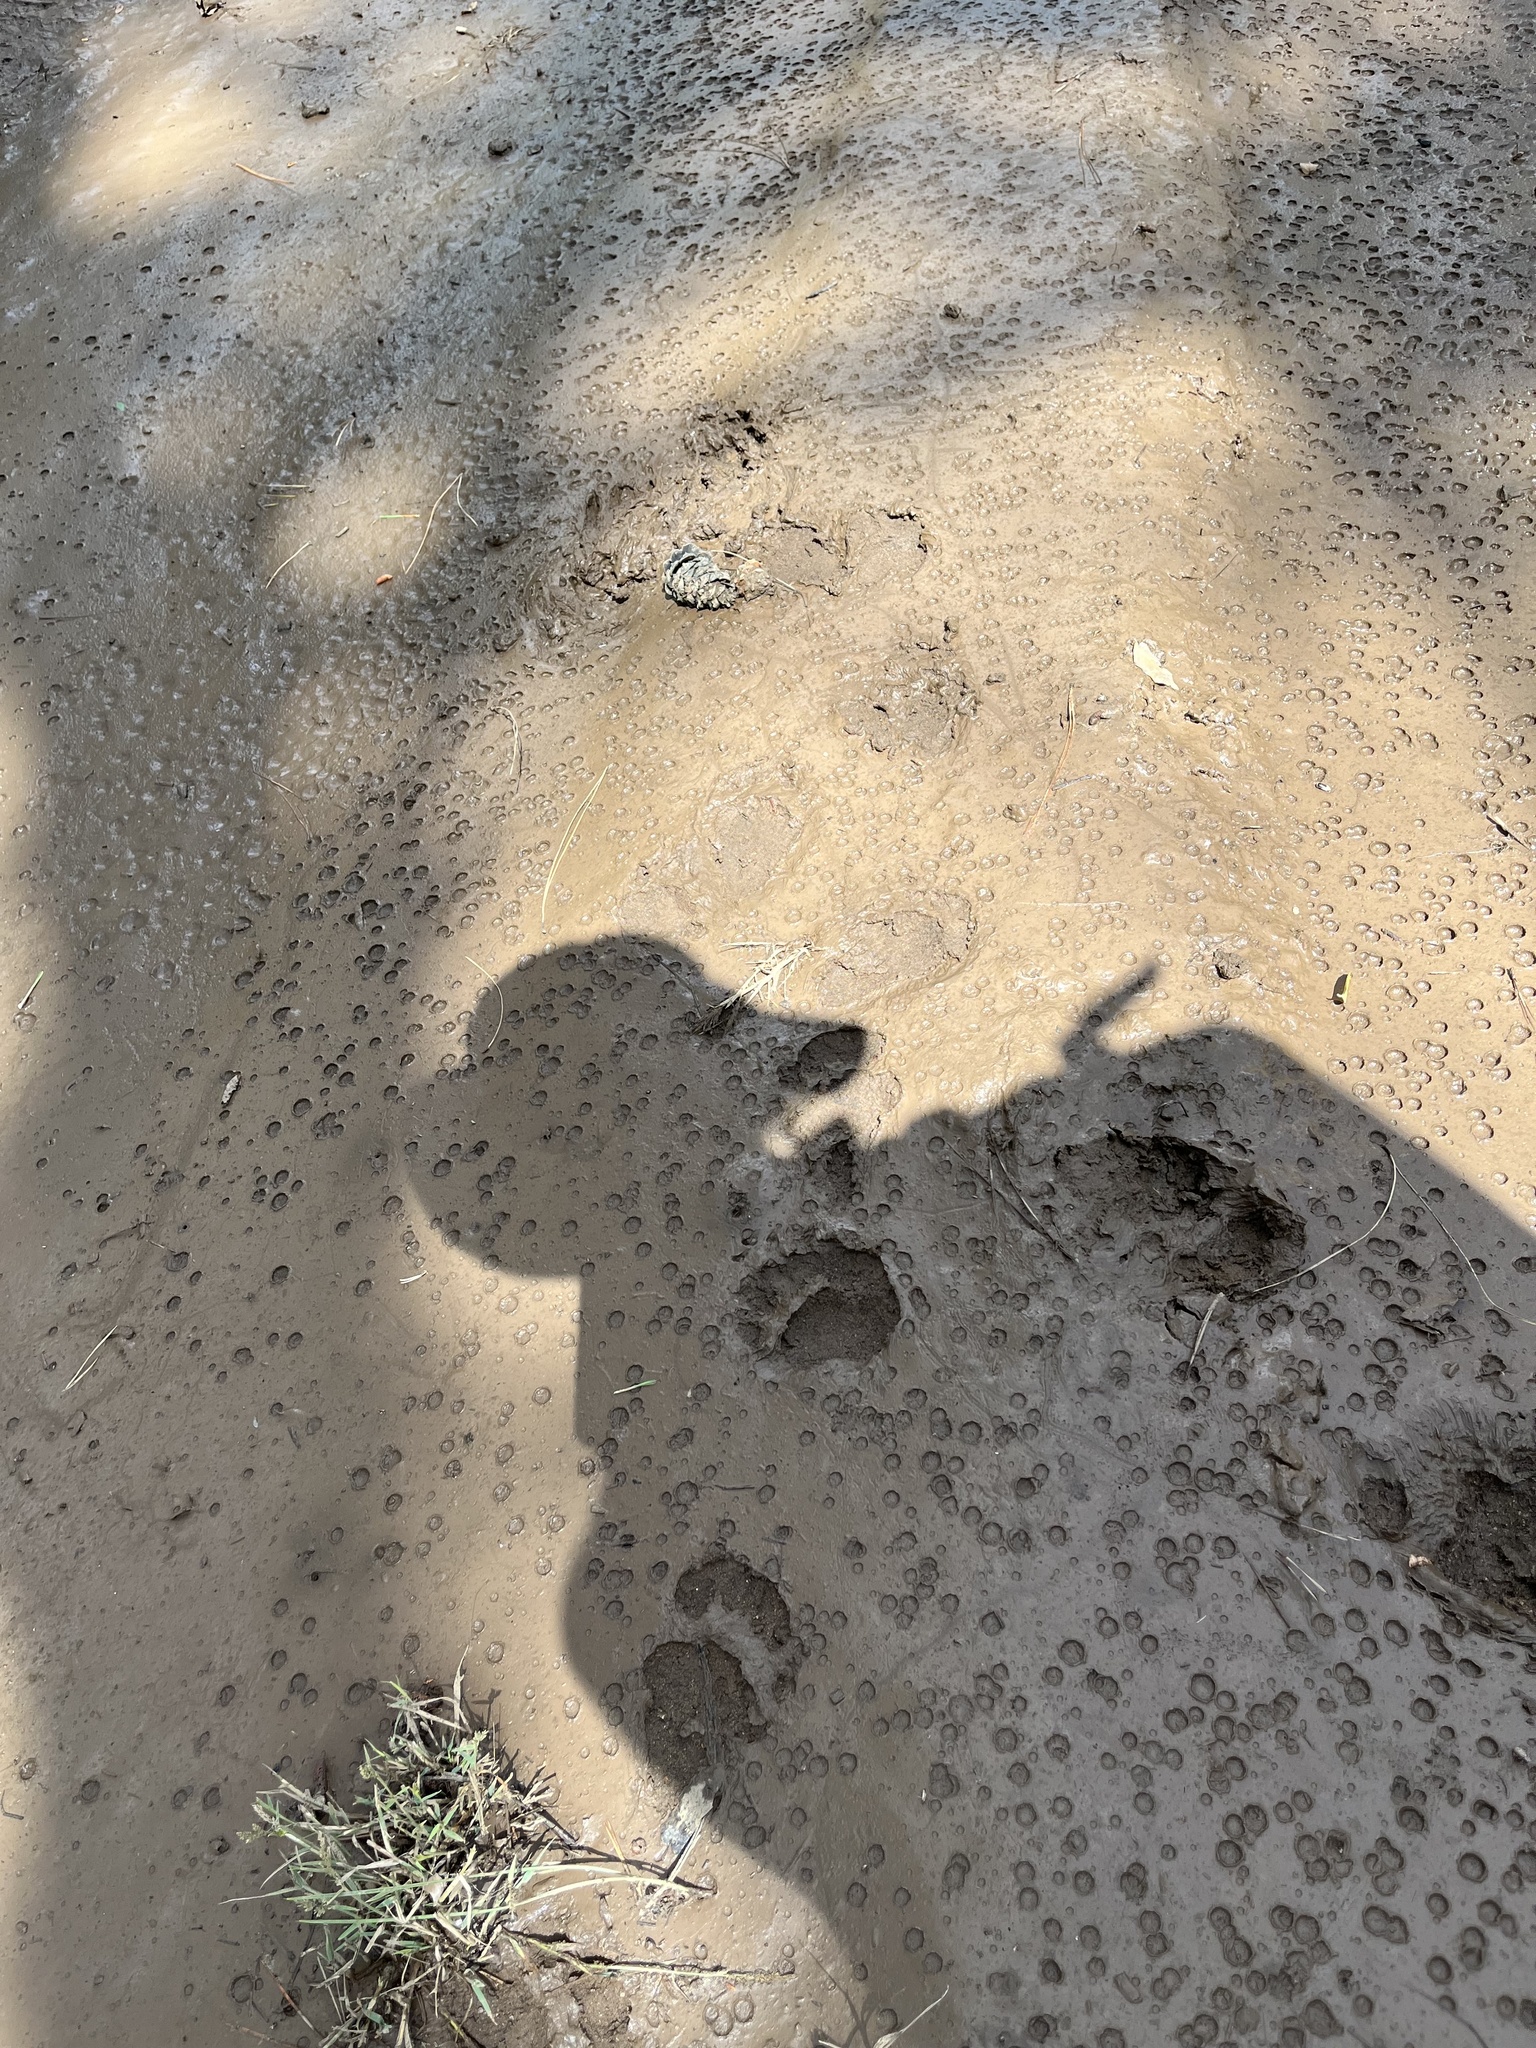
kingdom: Animalia
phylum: Chordata
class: Mammalia
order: Carnivora
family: Ursidae
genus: Ursus
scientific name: Ursus americanus
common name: American black bear
